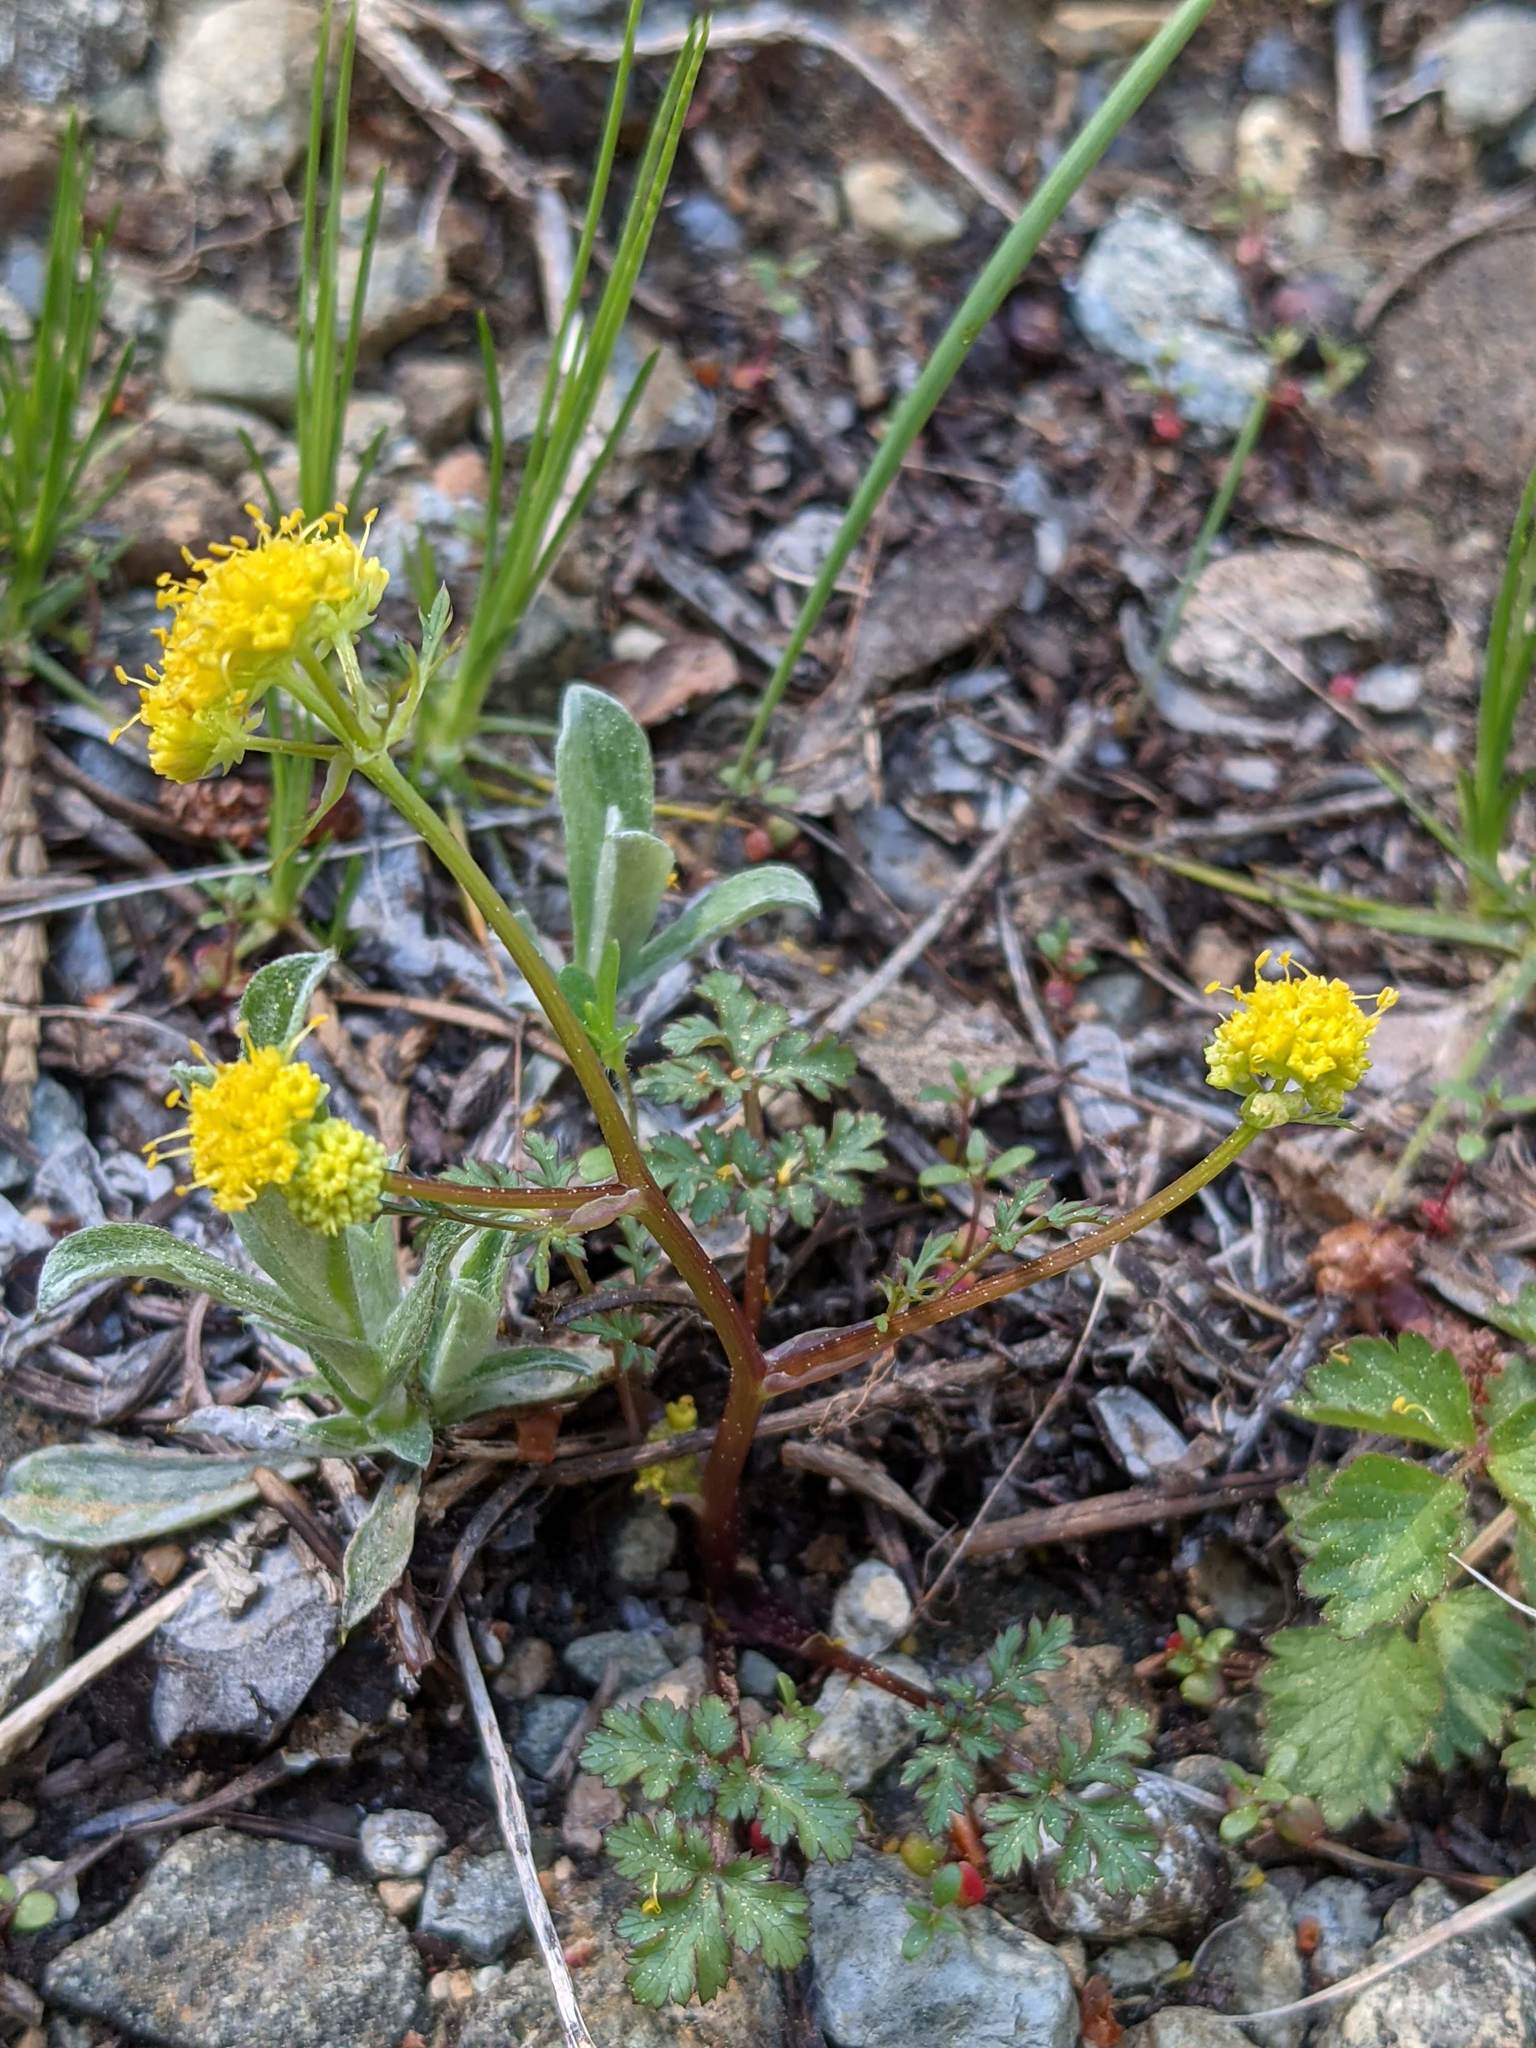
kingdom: Plantae
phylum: Tracheophyta
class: Magnoliopsida
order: Apiales
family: Apiaceae
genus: Sanicula
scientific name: Sanicula graveolens
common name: Sierra sanicle
